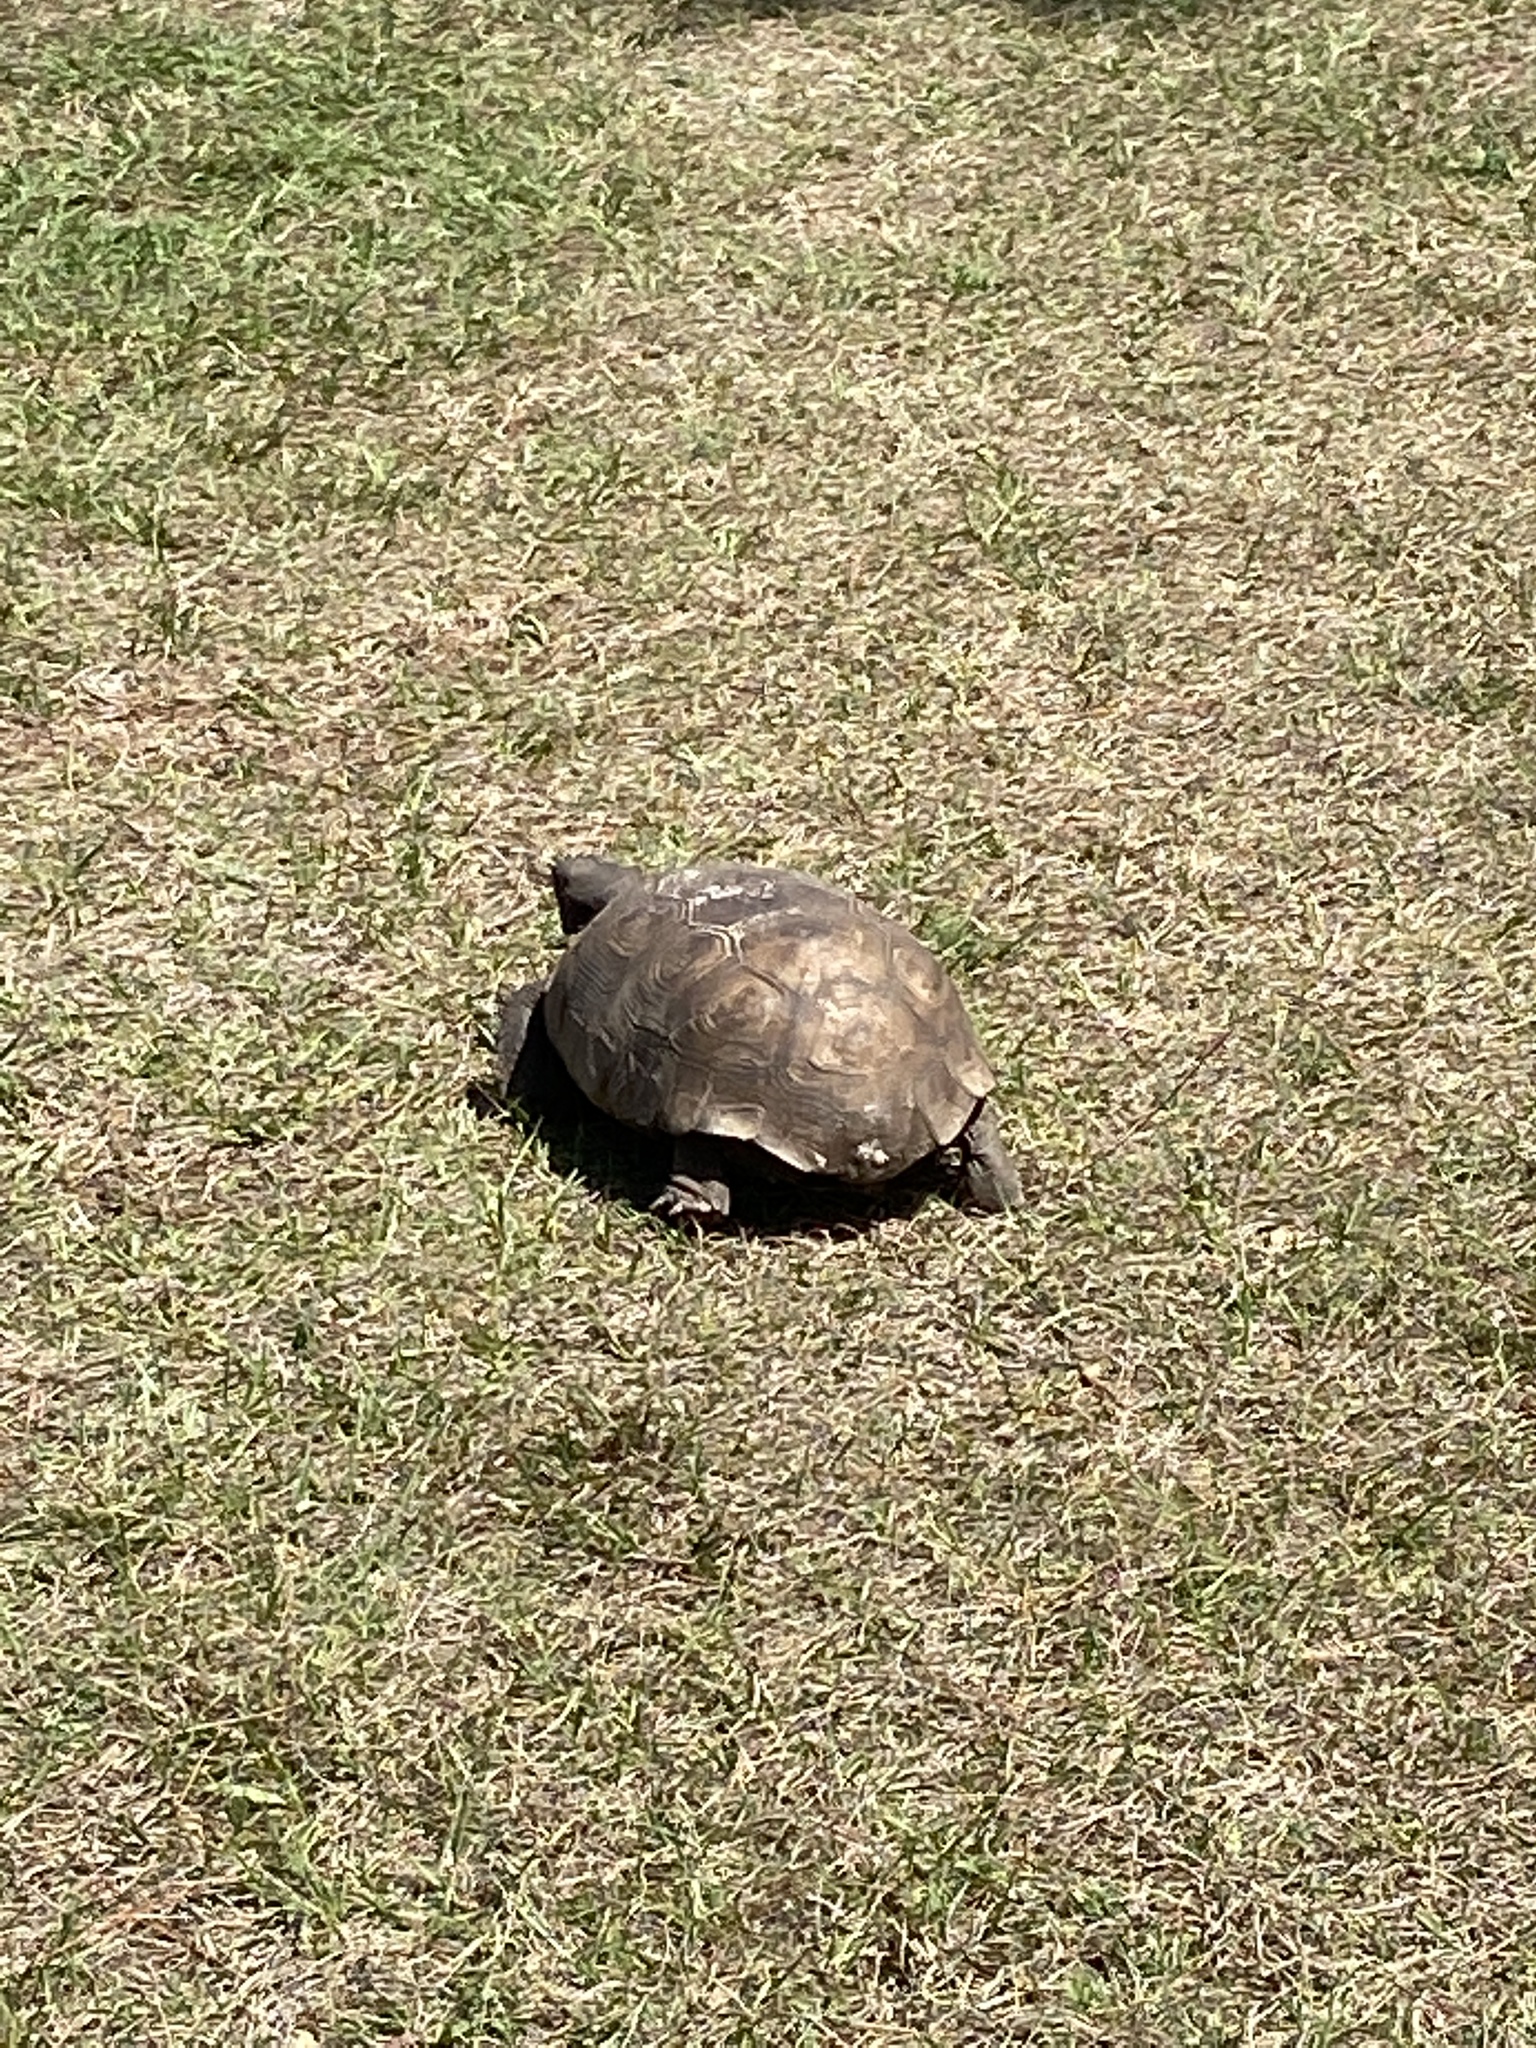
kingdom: Animalia
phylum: Chordata
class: Testudines
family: Testudinidae
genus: Gopherus
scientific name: Gopherus polyphemus
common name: Florida gopher tortoise
